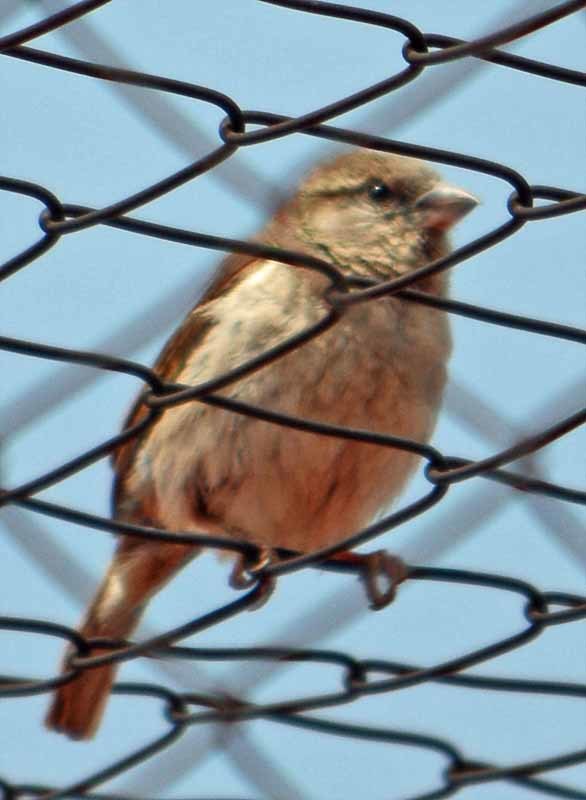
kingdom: Animalia
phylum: Chordata
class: Aves
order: Passeriformes
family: Passeridae
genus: Passer
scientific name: Passer domesticus
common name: House sparrow
